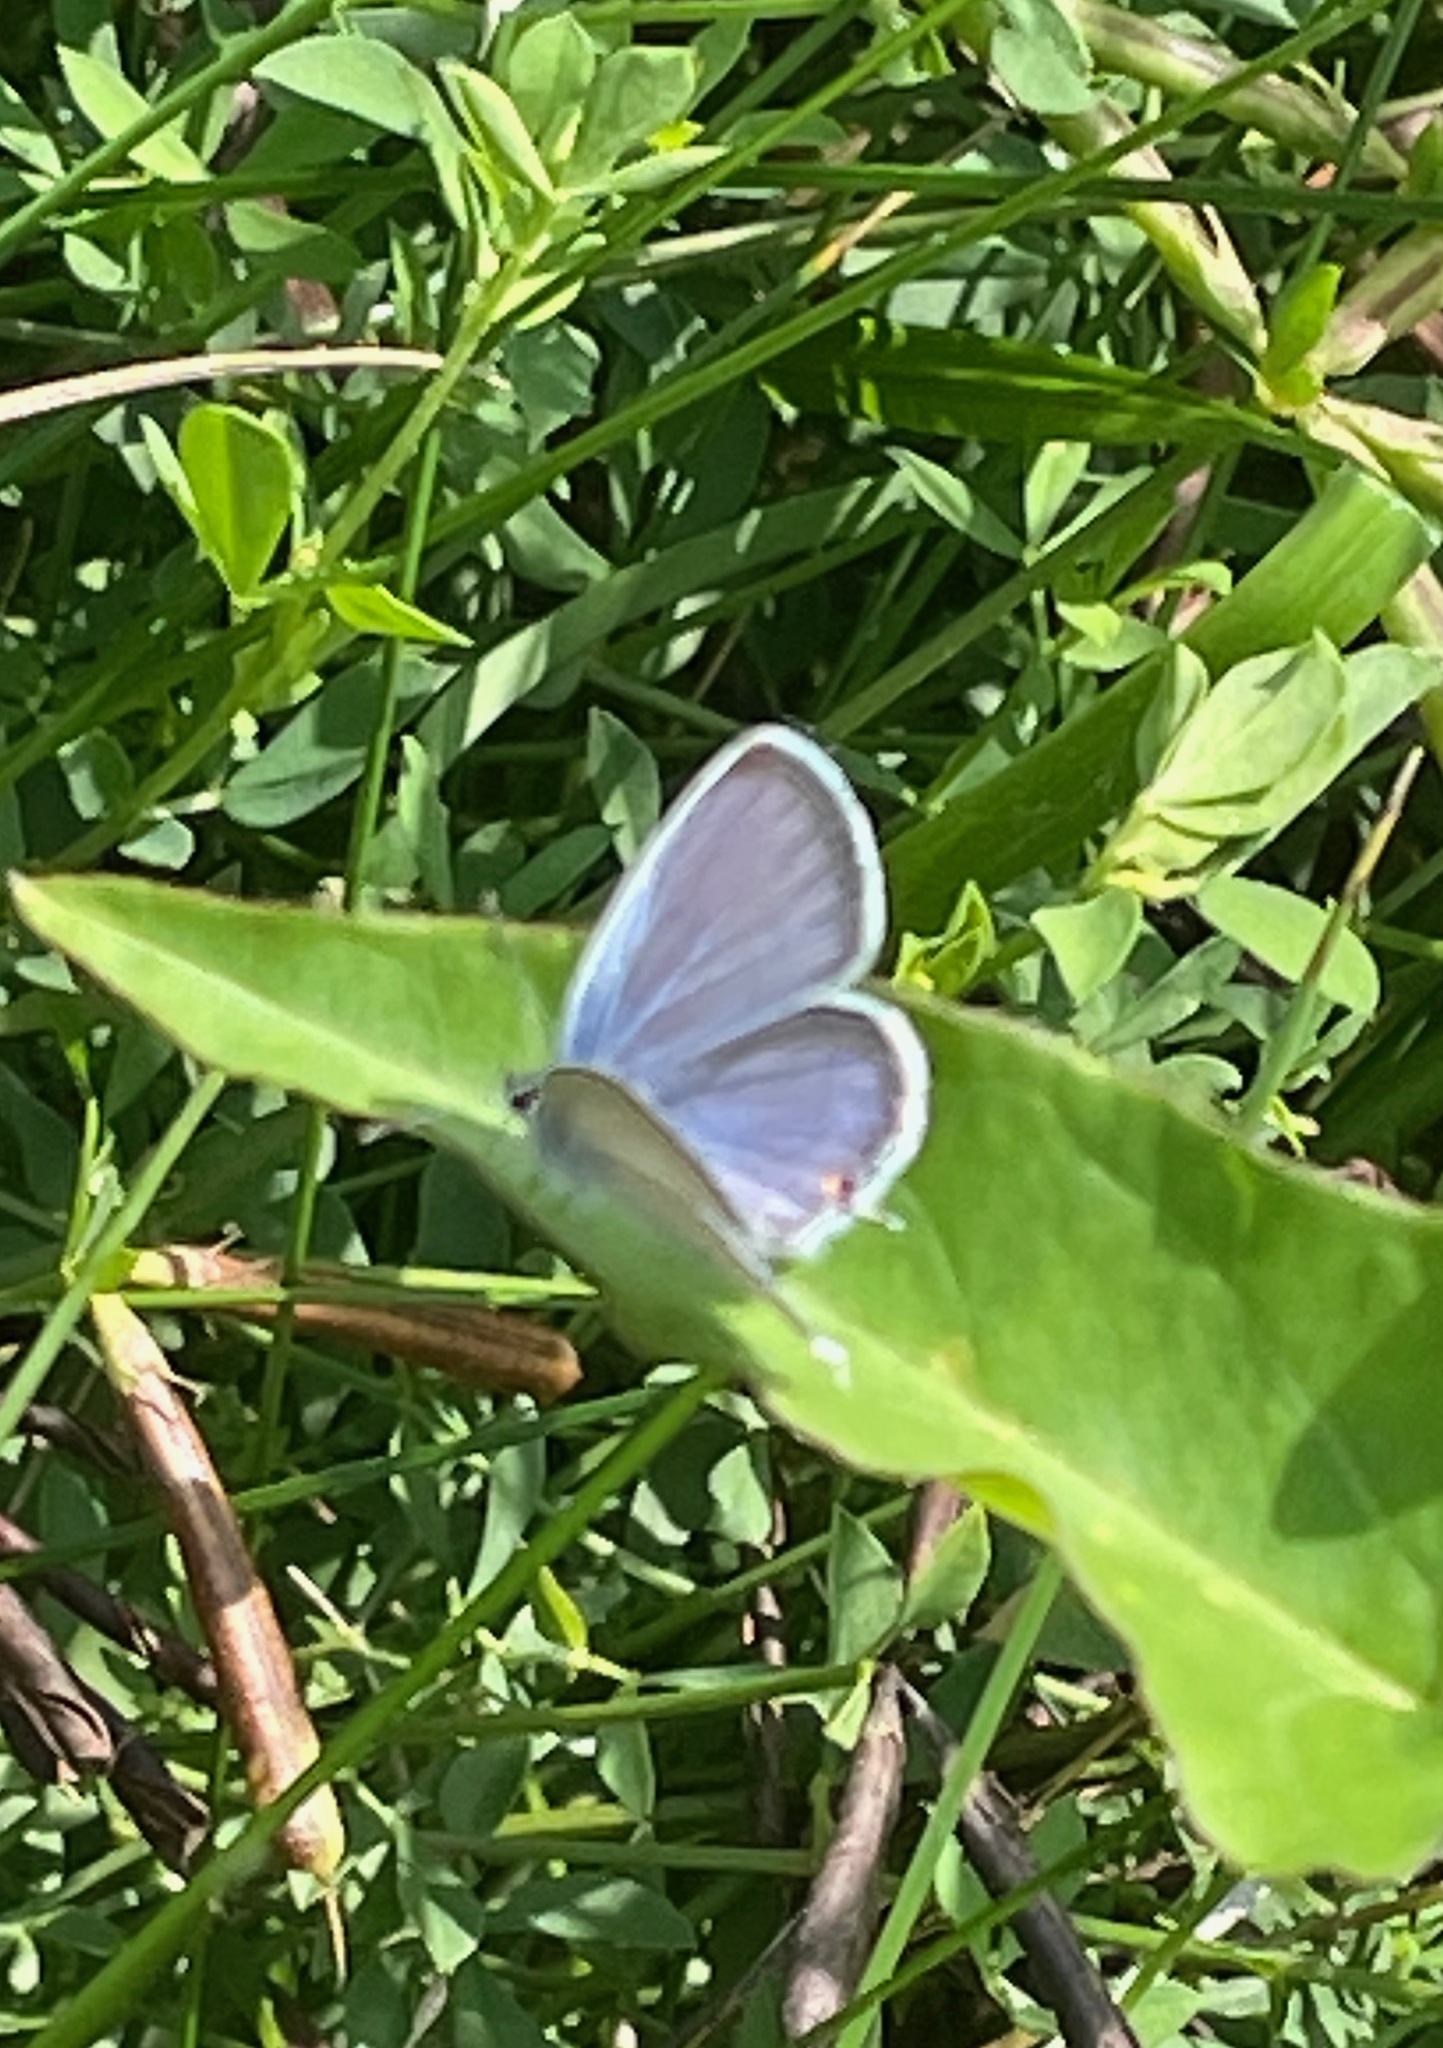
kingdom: Animalia
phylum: Arthropoda
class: Insecta
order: Lepidoptera
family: Lycaenidae
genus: Elkalyce
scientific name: Elkalyce comyntas
